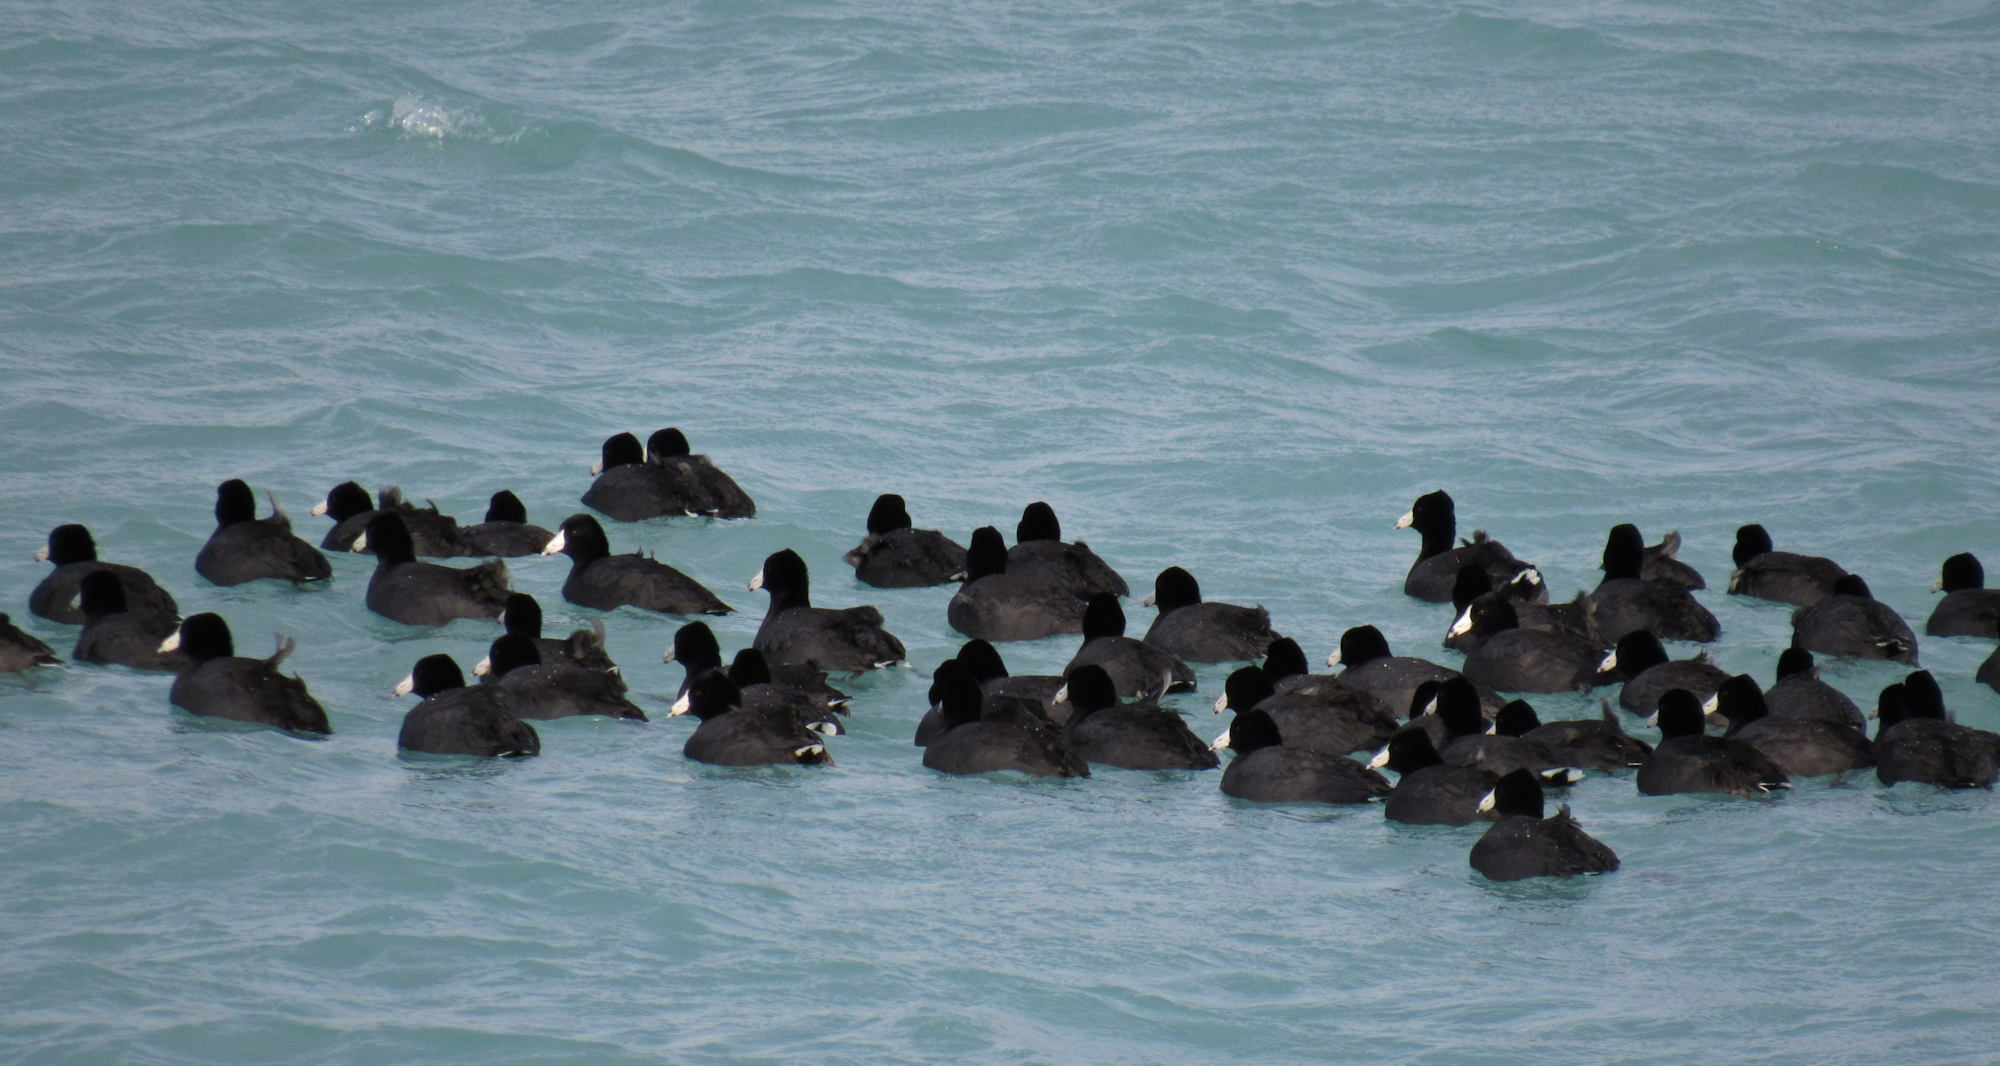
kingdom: Animalia
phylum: Chordata
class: Aves
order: Gruiformes
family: Rallidae
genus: Fulica
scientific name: Fulica americana
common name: American coot
